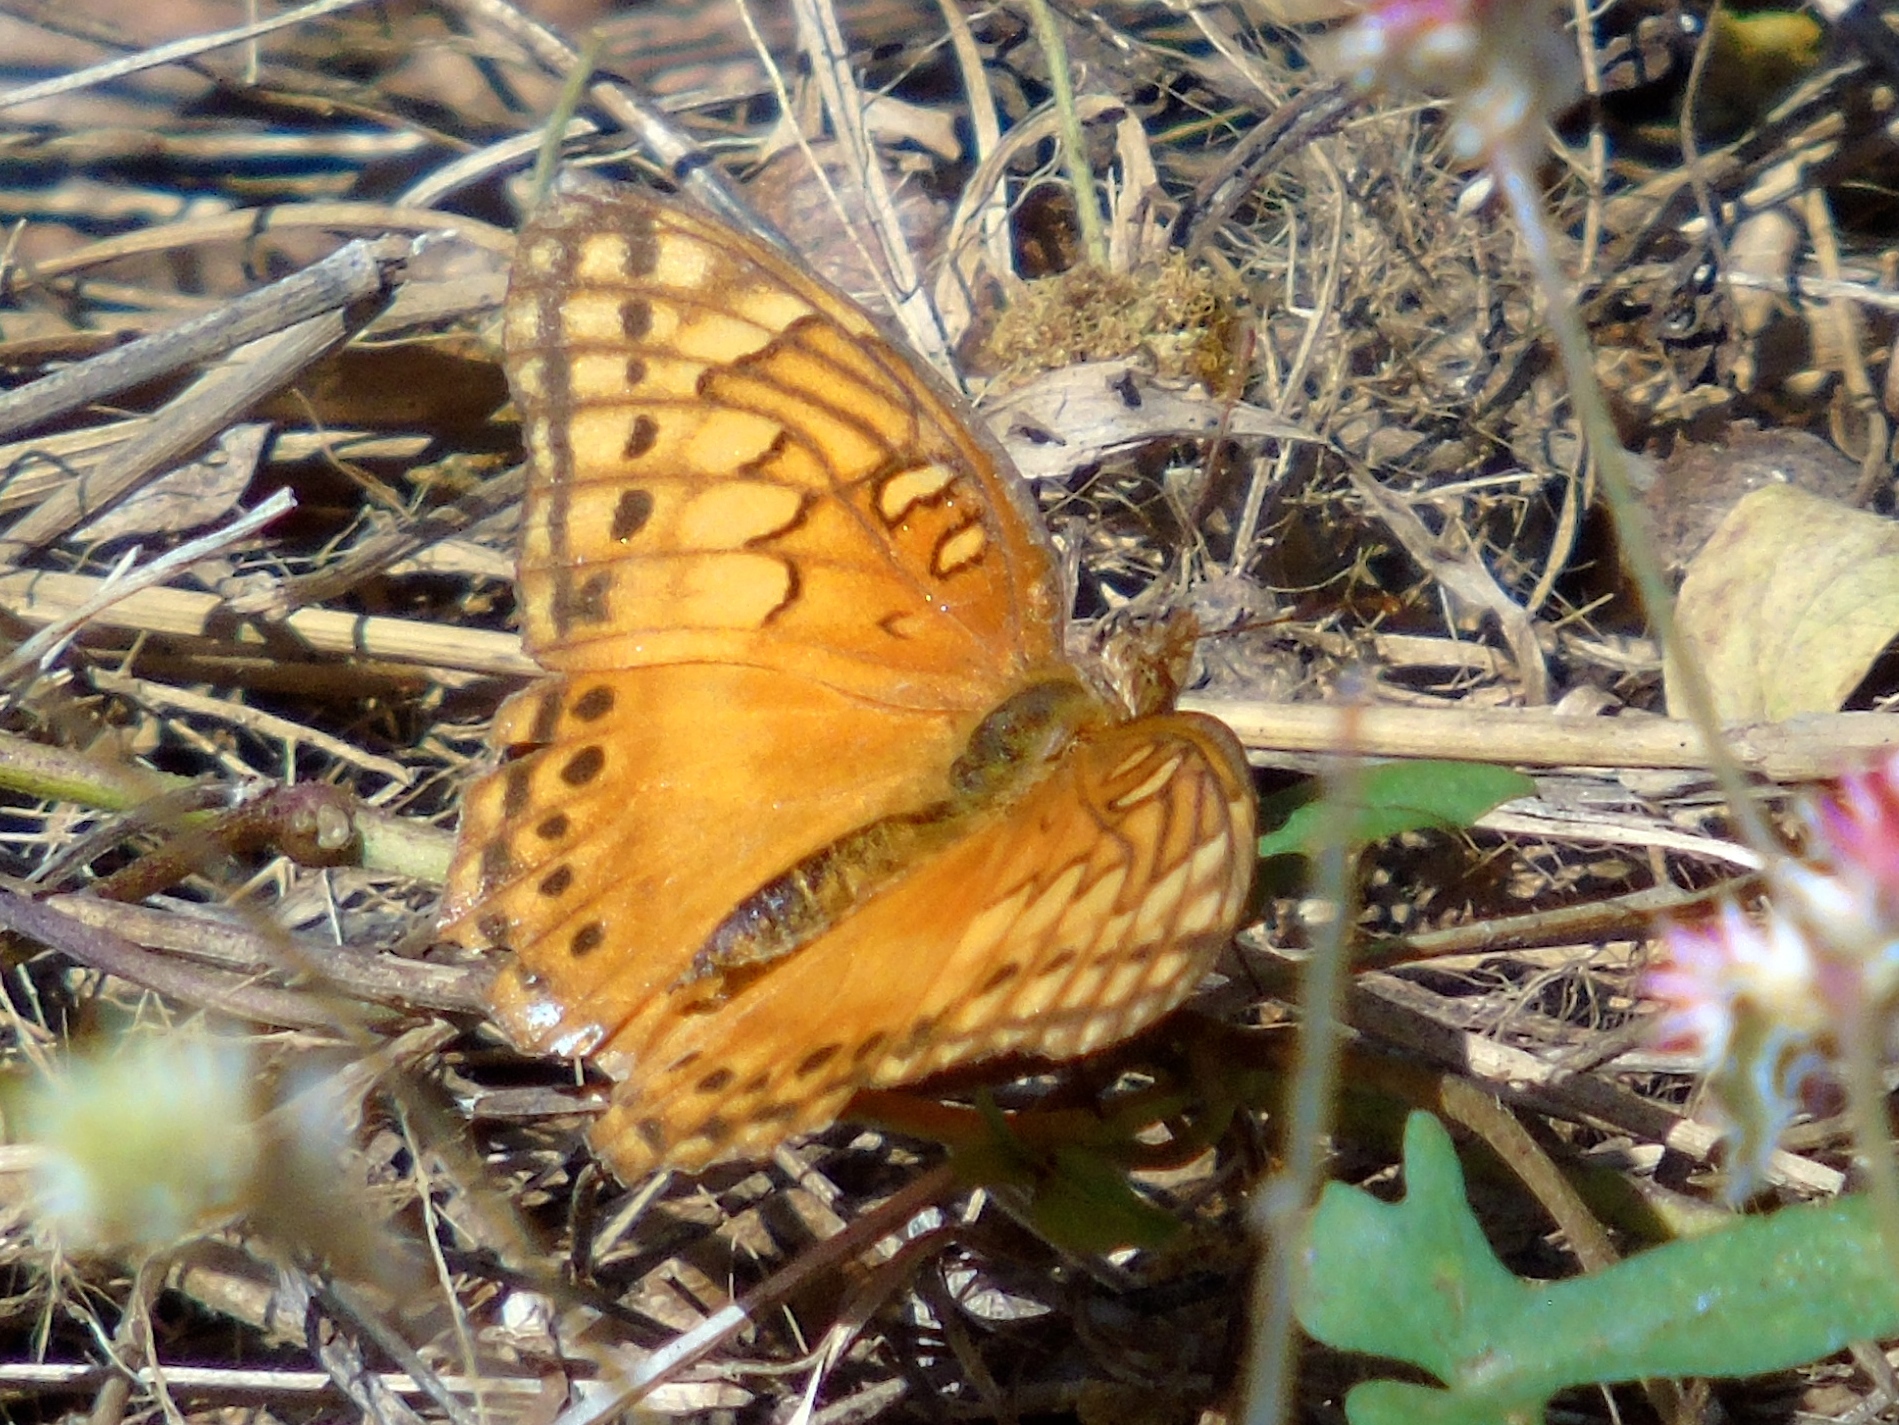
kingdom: Animalia
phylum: Arthropoda
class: Insecta
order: Lepidoptera
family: Nymphalidae
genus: Euptoieta
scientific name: Euptoieta hegesia
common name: Mexican fritillary
